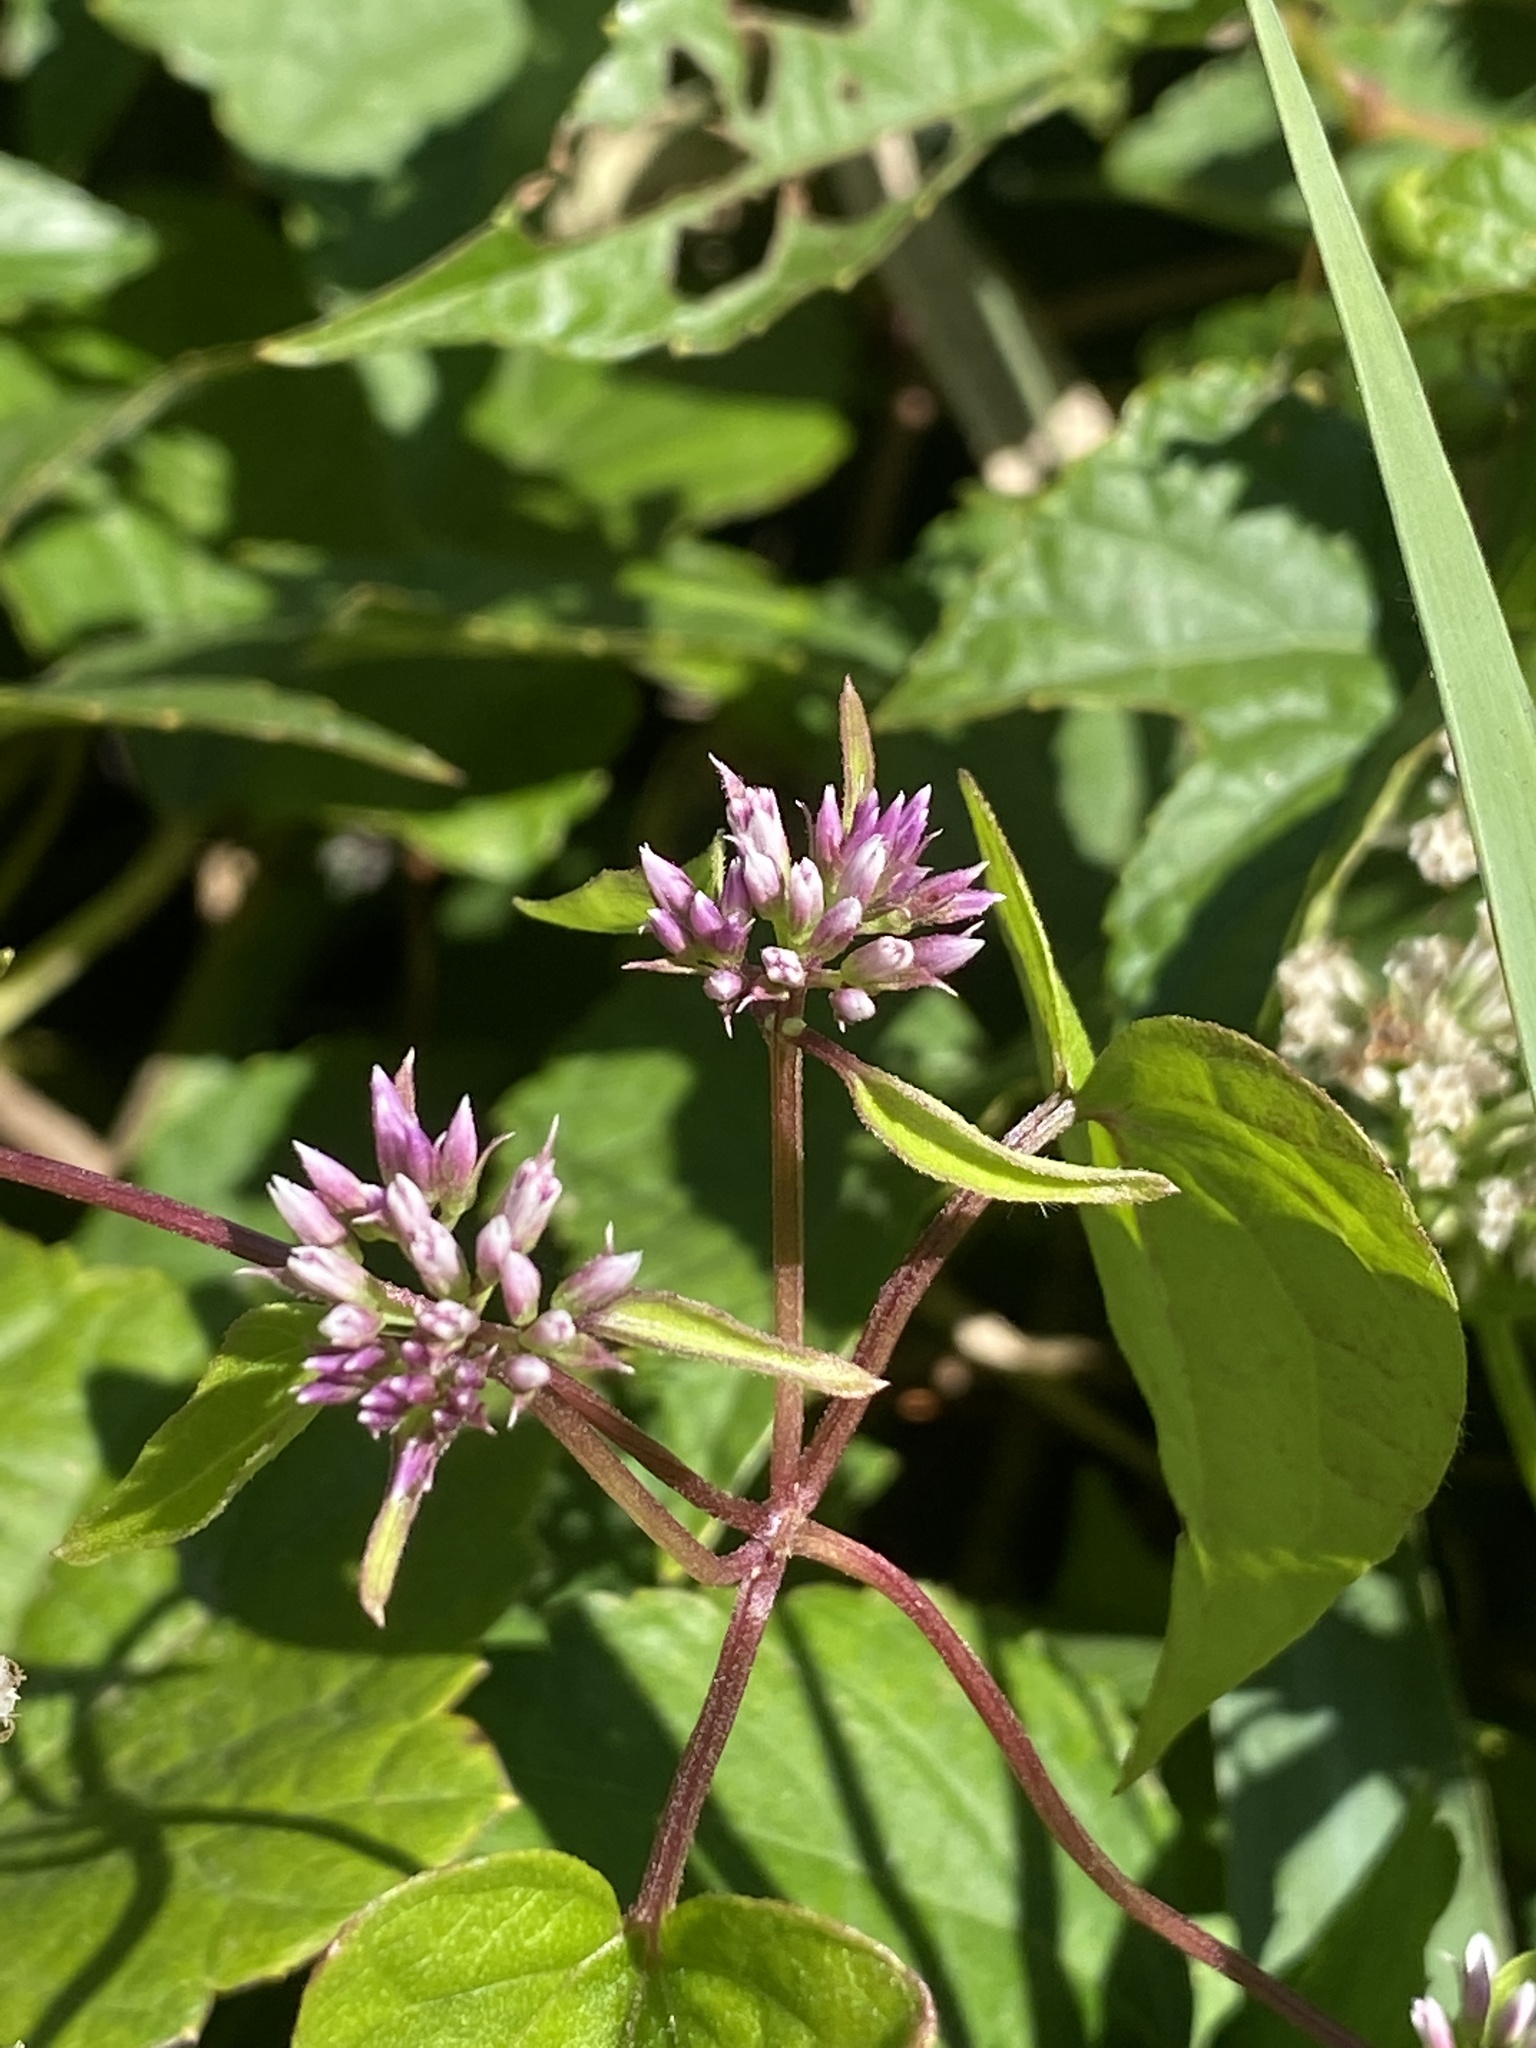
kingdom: Plantae
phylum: Tracheophyta
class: Magnoliopsida
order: Asterales
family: Asteraceae
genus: Mikania
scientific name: Mikania scandens
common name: Climbing hempvine
